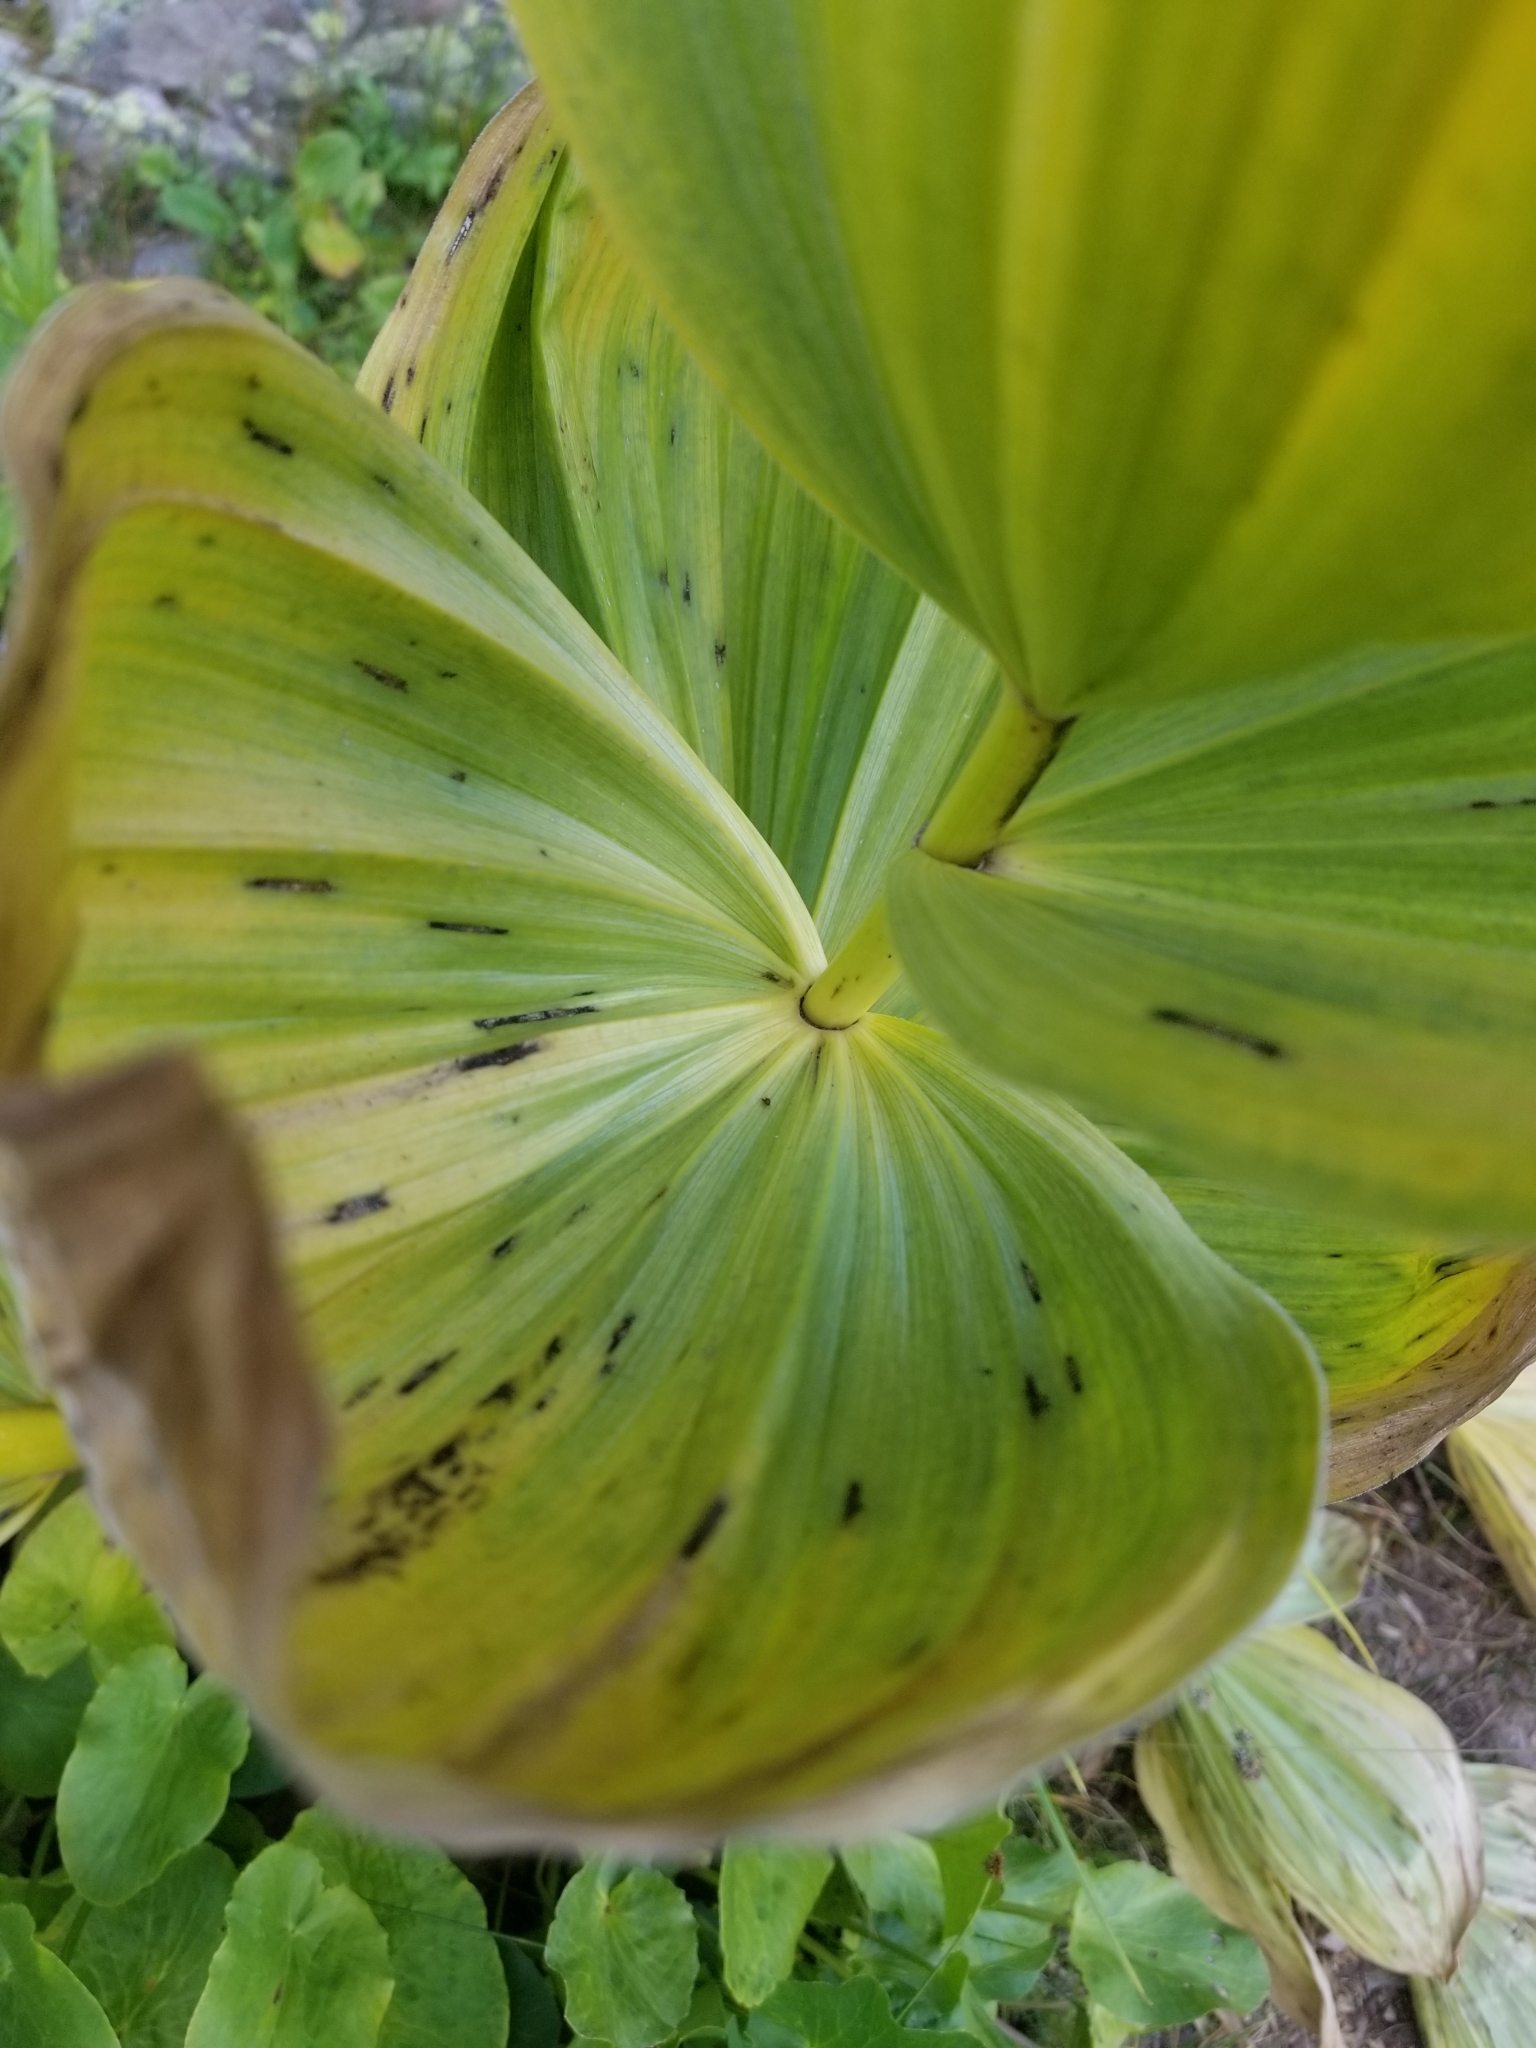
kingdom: Plantae
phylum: Tracheophyta
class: Liliopsida
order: Liliales
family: Melanthiaceae
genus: Veratrum
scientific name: Veratrum californicum
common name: California veratrum
